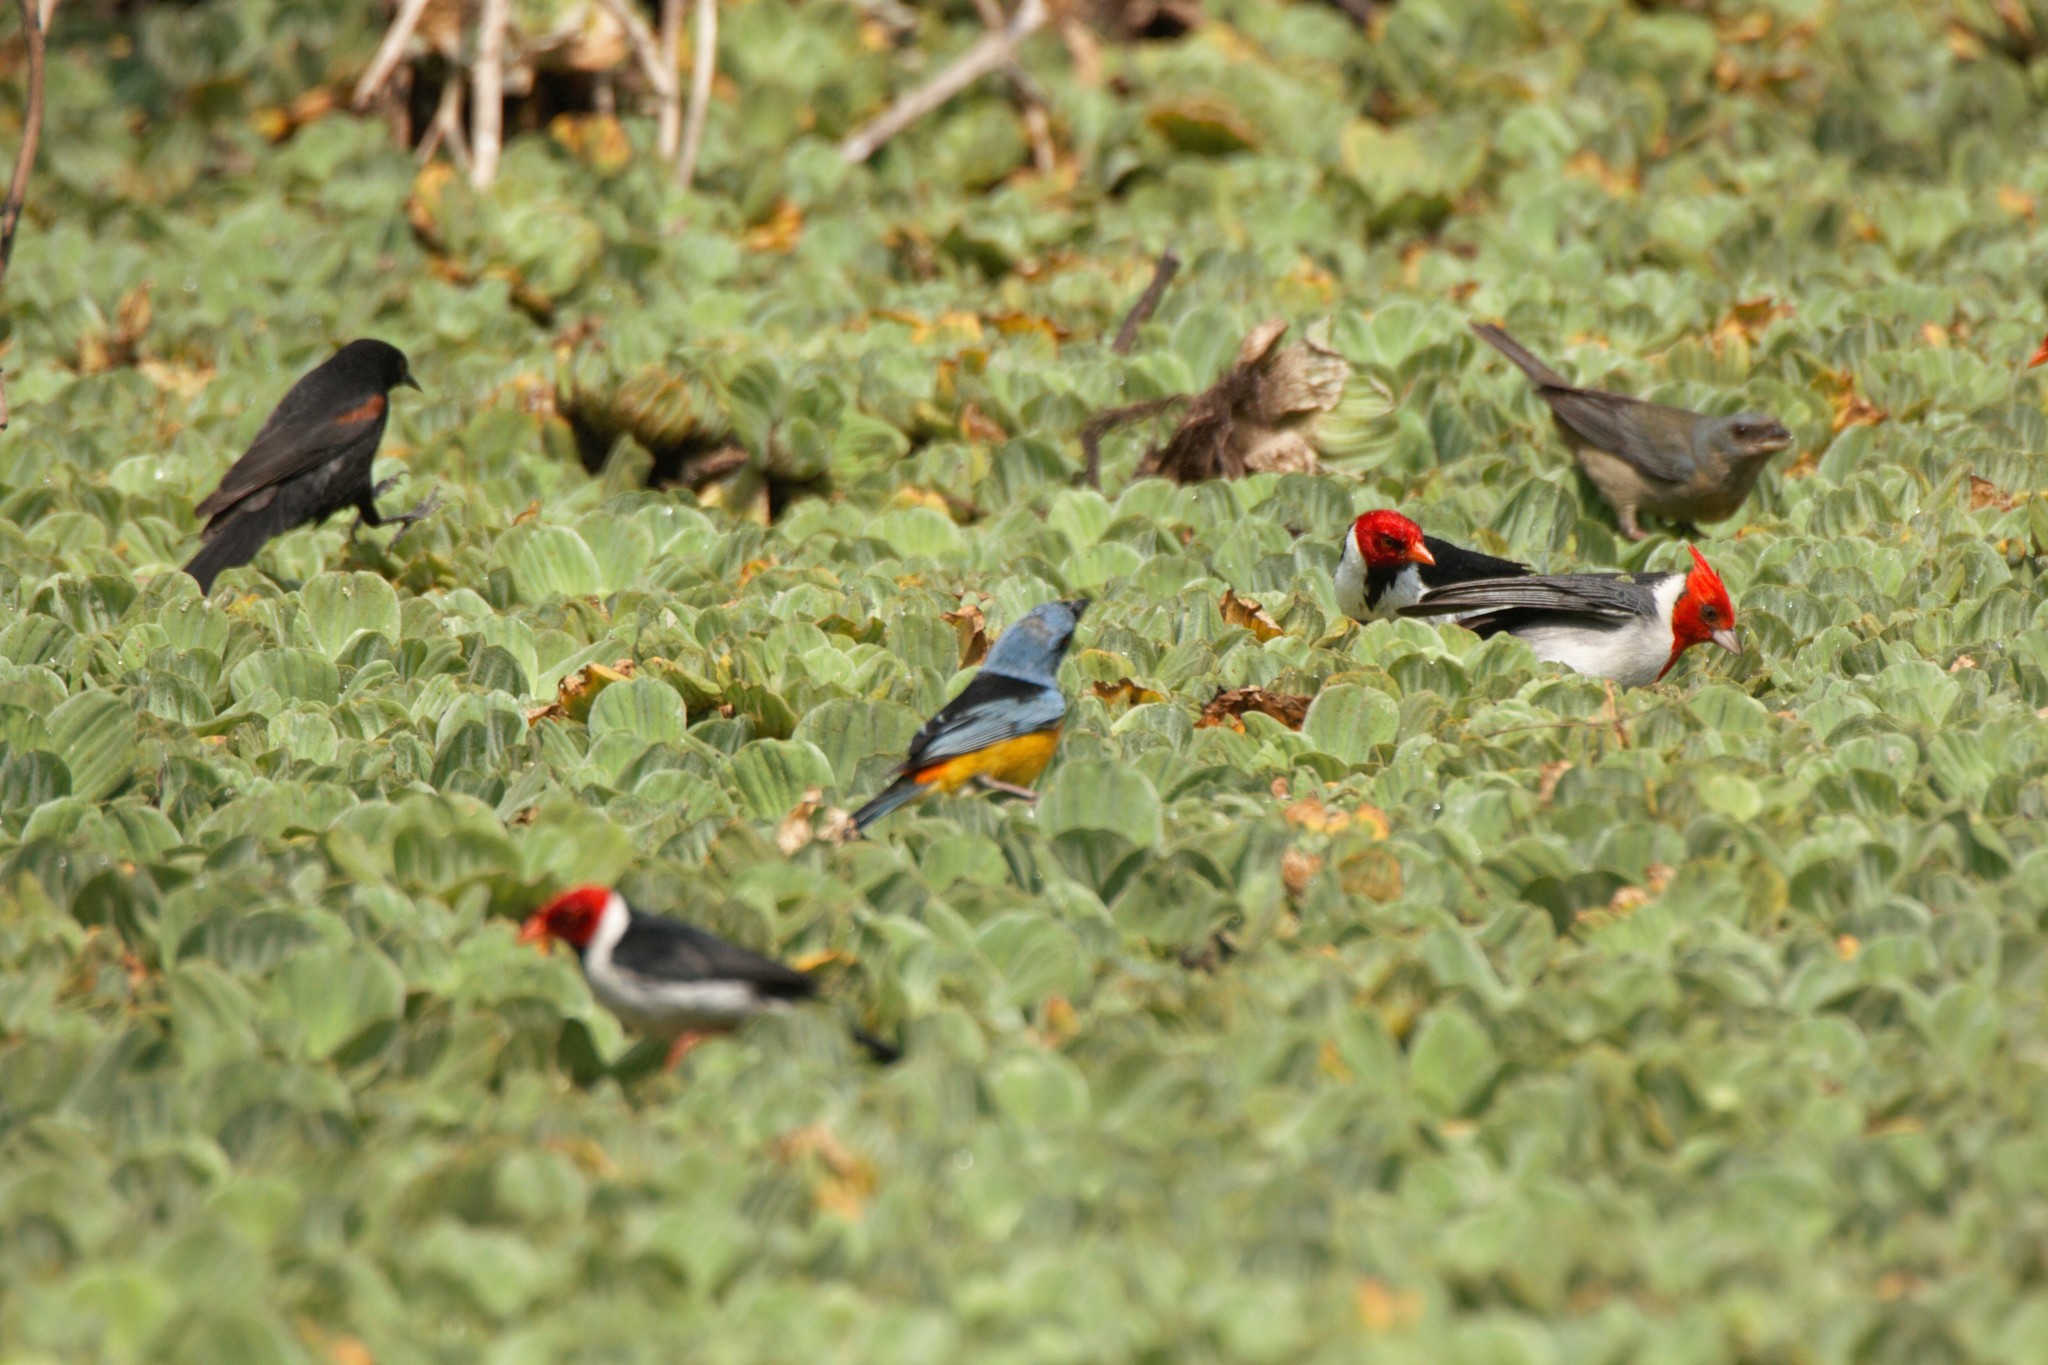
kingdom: Animalia
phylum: Chordata
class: Aves
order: Passeriformes
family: Icteridae
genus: Icterus
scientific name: Icterus cayanensis
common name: Epaulet oriole
